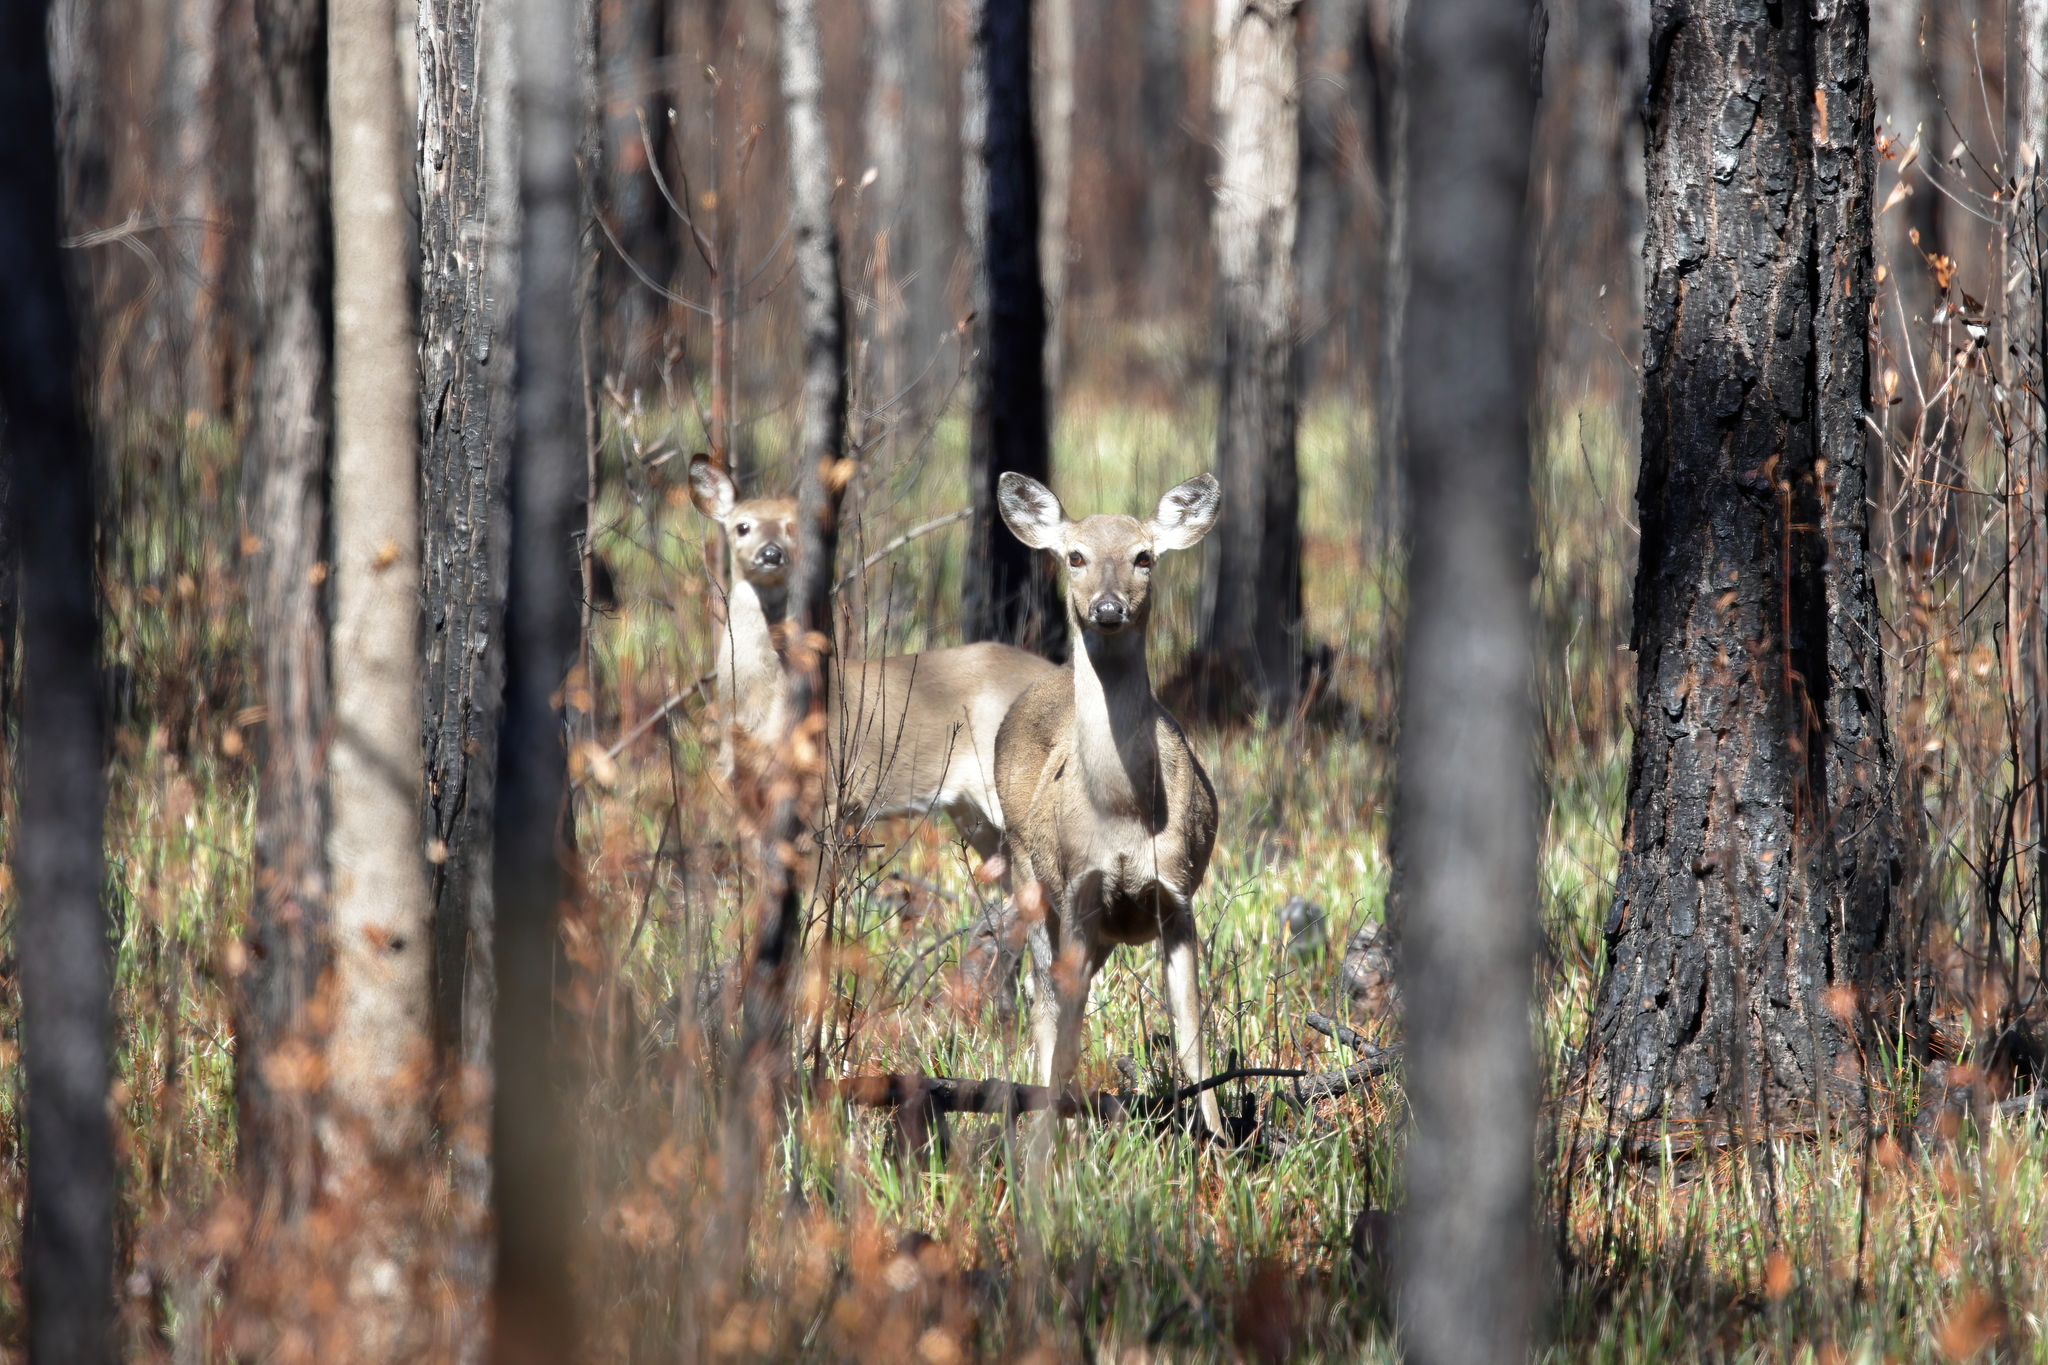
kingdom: Animalia
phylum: Chordata
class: Mammalia
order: Artiodactyla
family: Cervidae
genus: Odocoileus
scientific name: Odocoileus virginianus
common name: White-tailed deer
